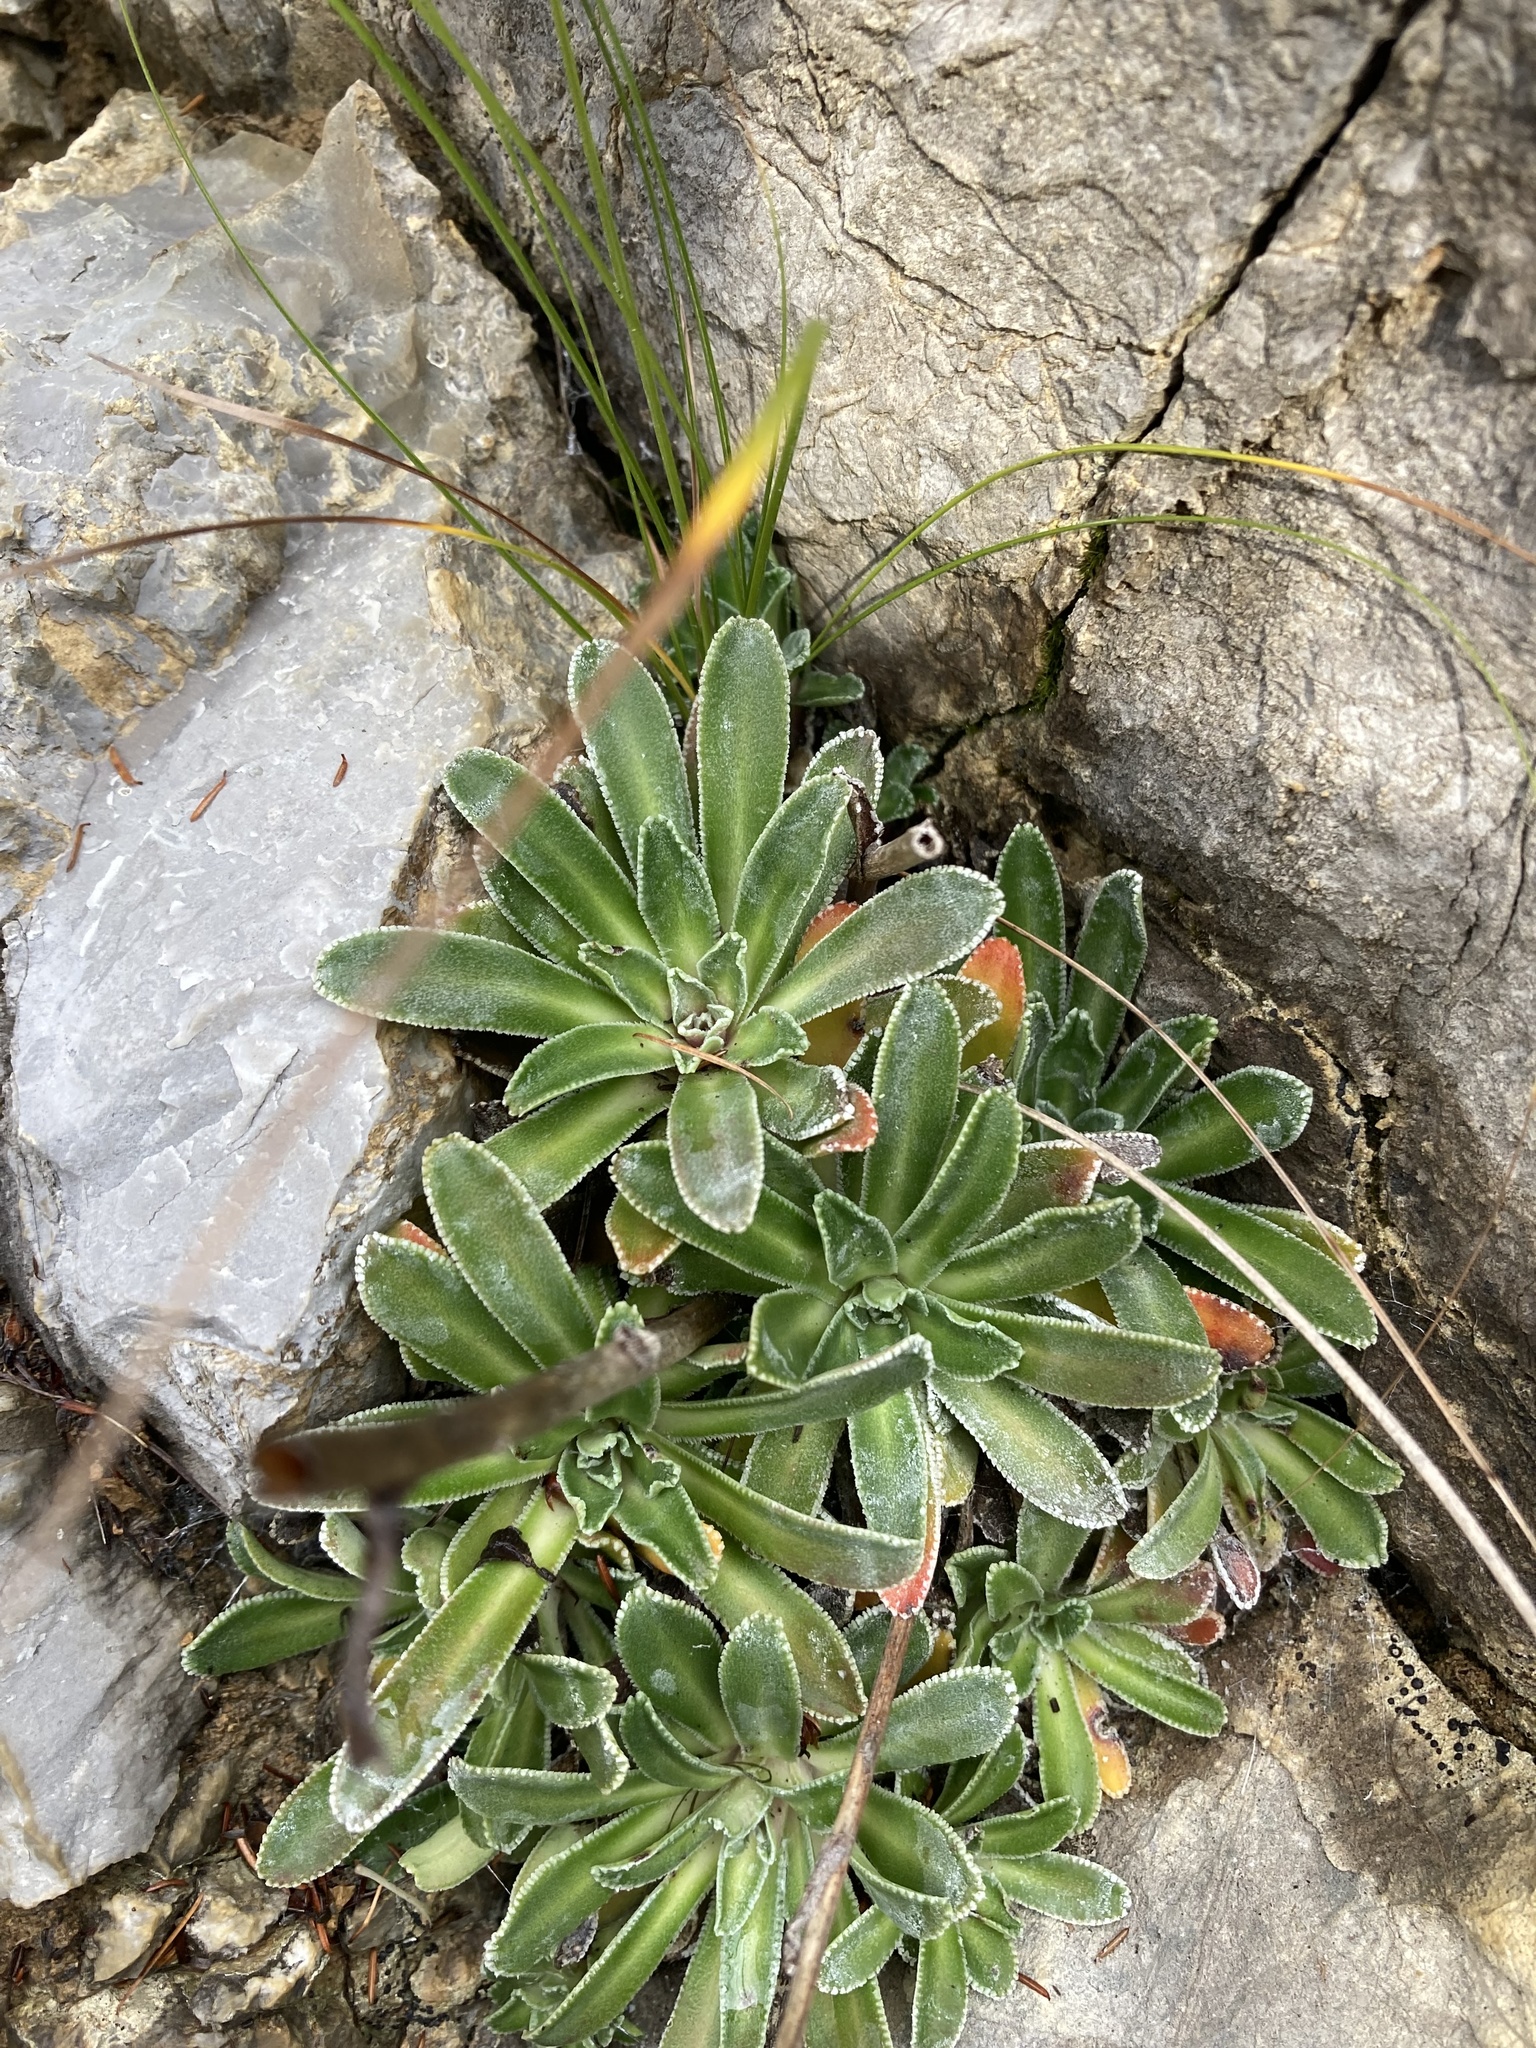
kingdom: Plantae
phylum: Tracheophyta
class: Magnoliopsida
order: Saxifragales
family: Saxifragaceae
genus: Saxifraga
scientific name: Saxifraga hostii
